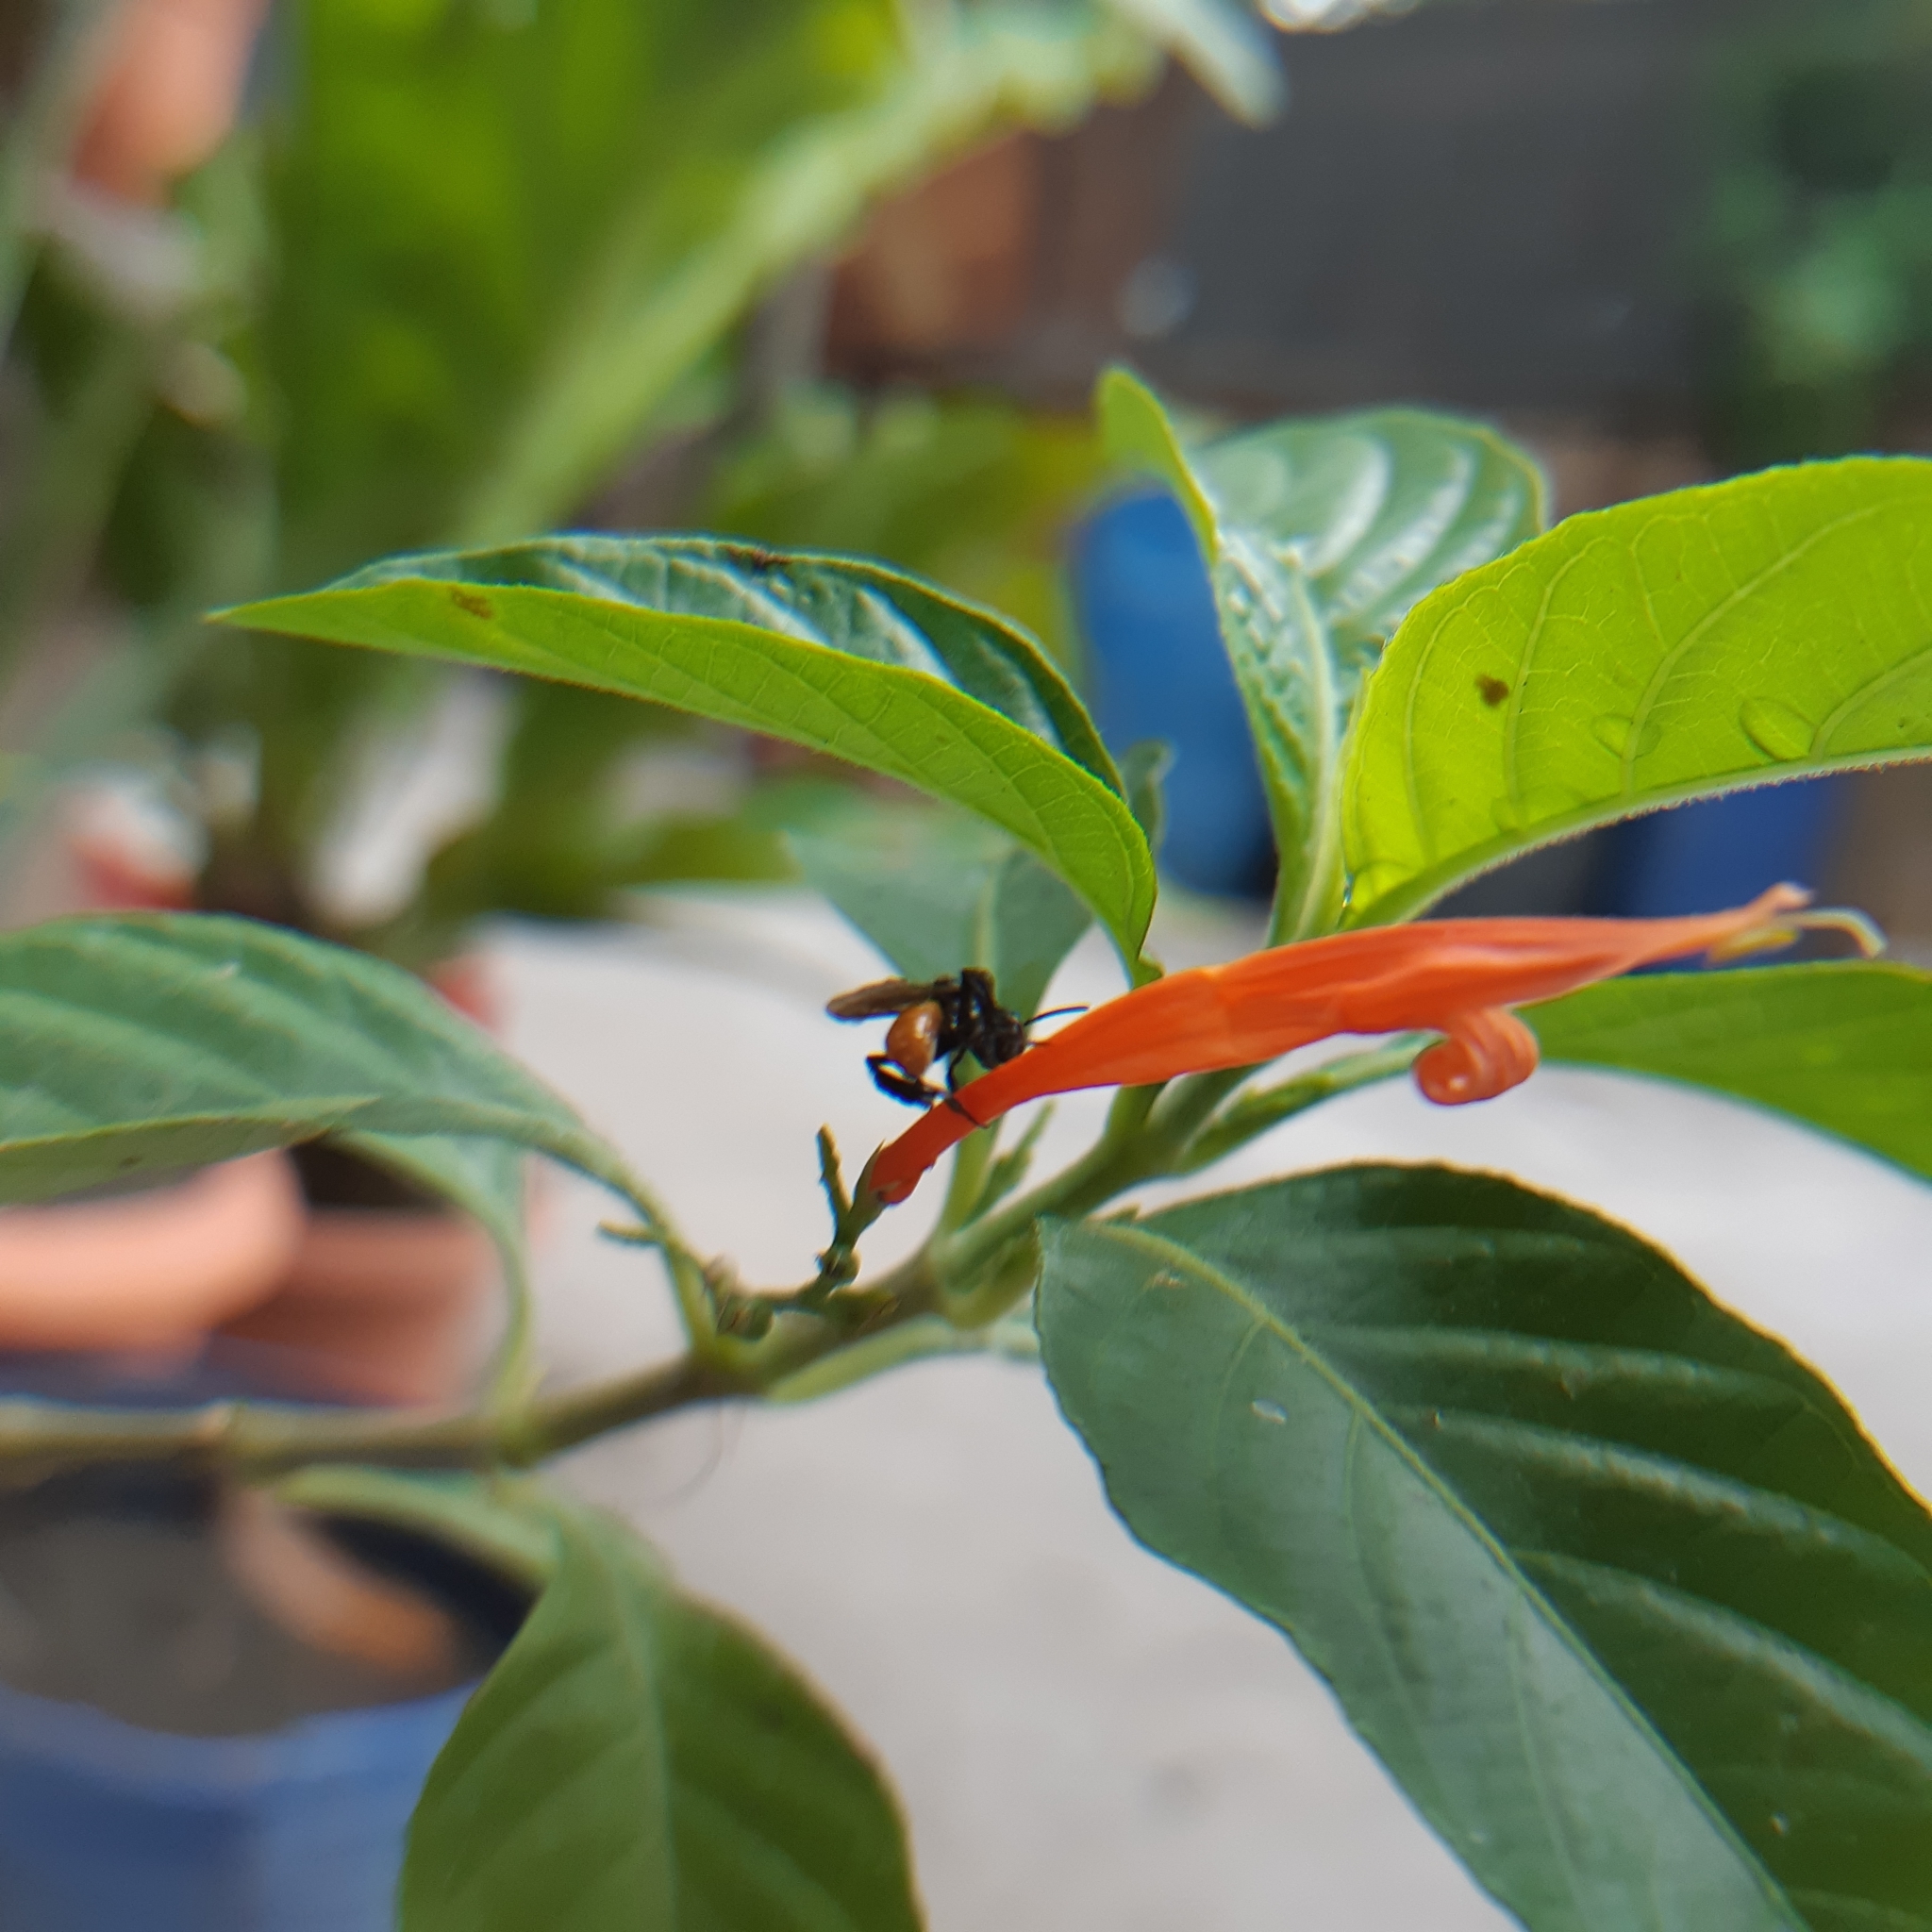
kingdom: Animalia
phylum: Arthropoda
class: Insecta
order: Hymenoptera
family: Apidae
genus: Trigona
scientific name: Trigona fulviventris
